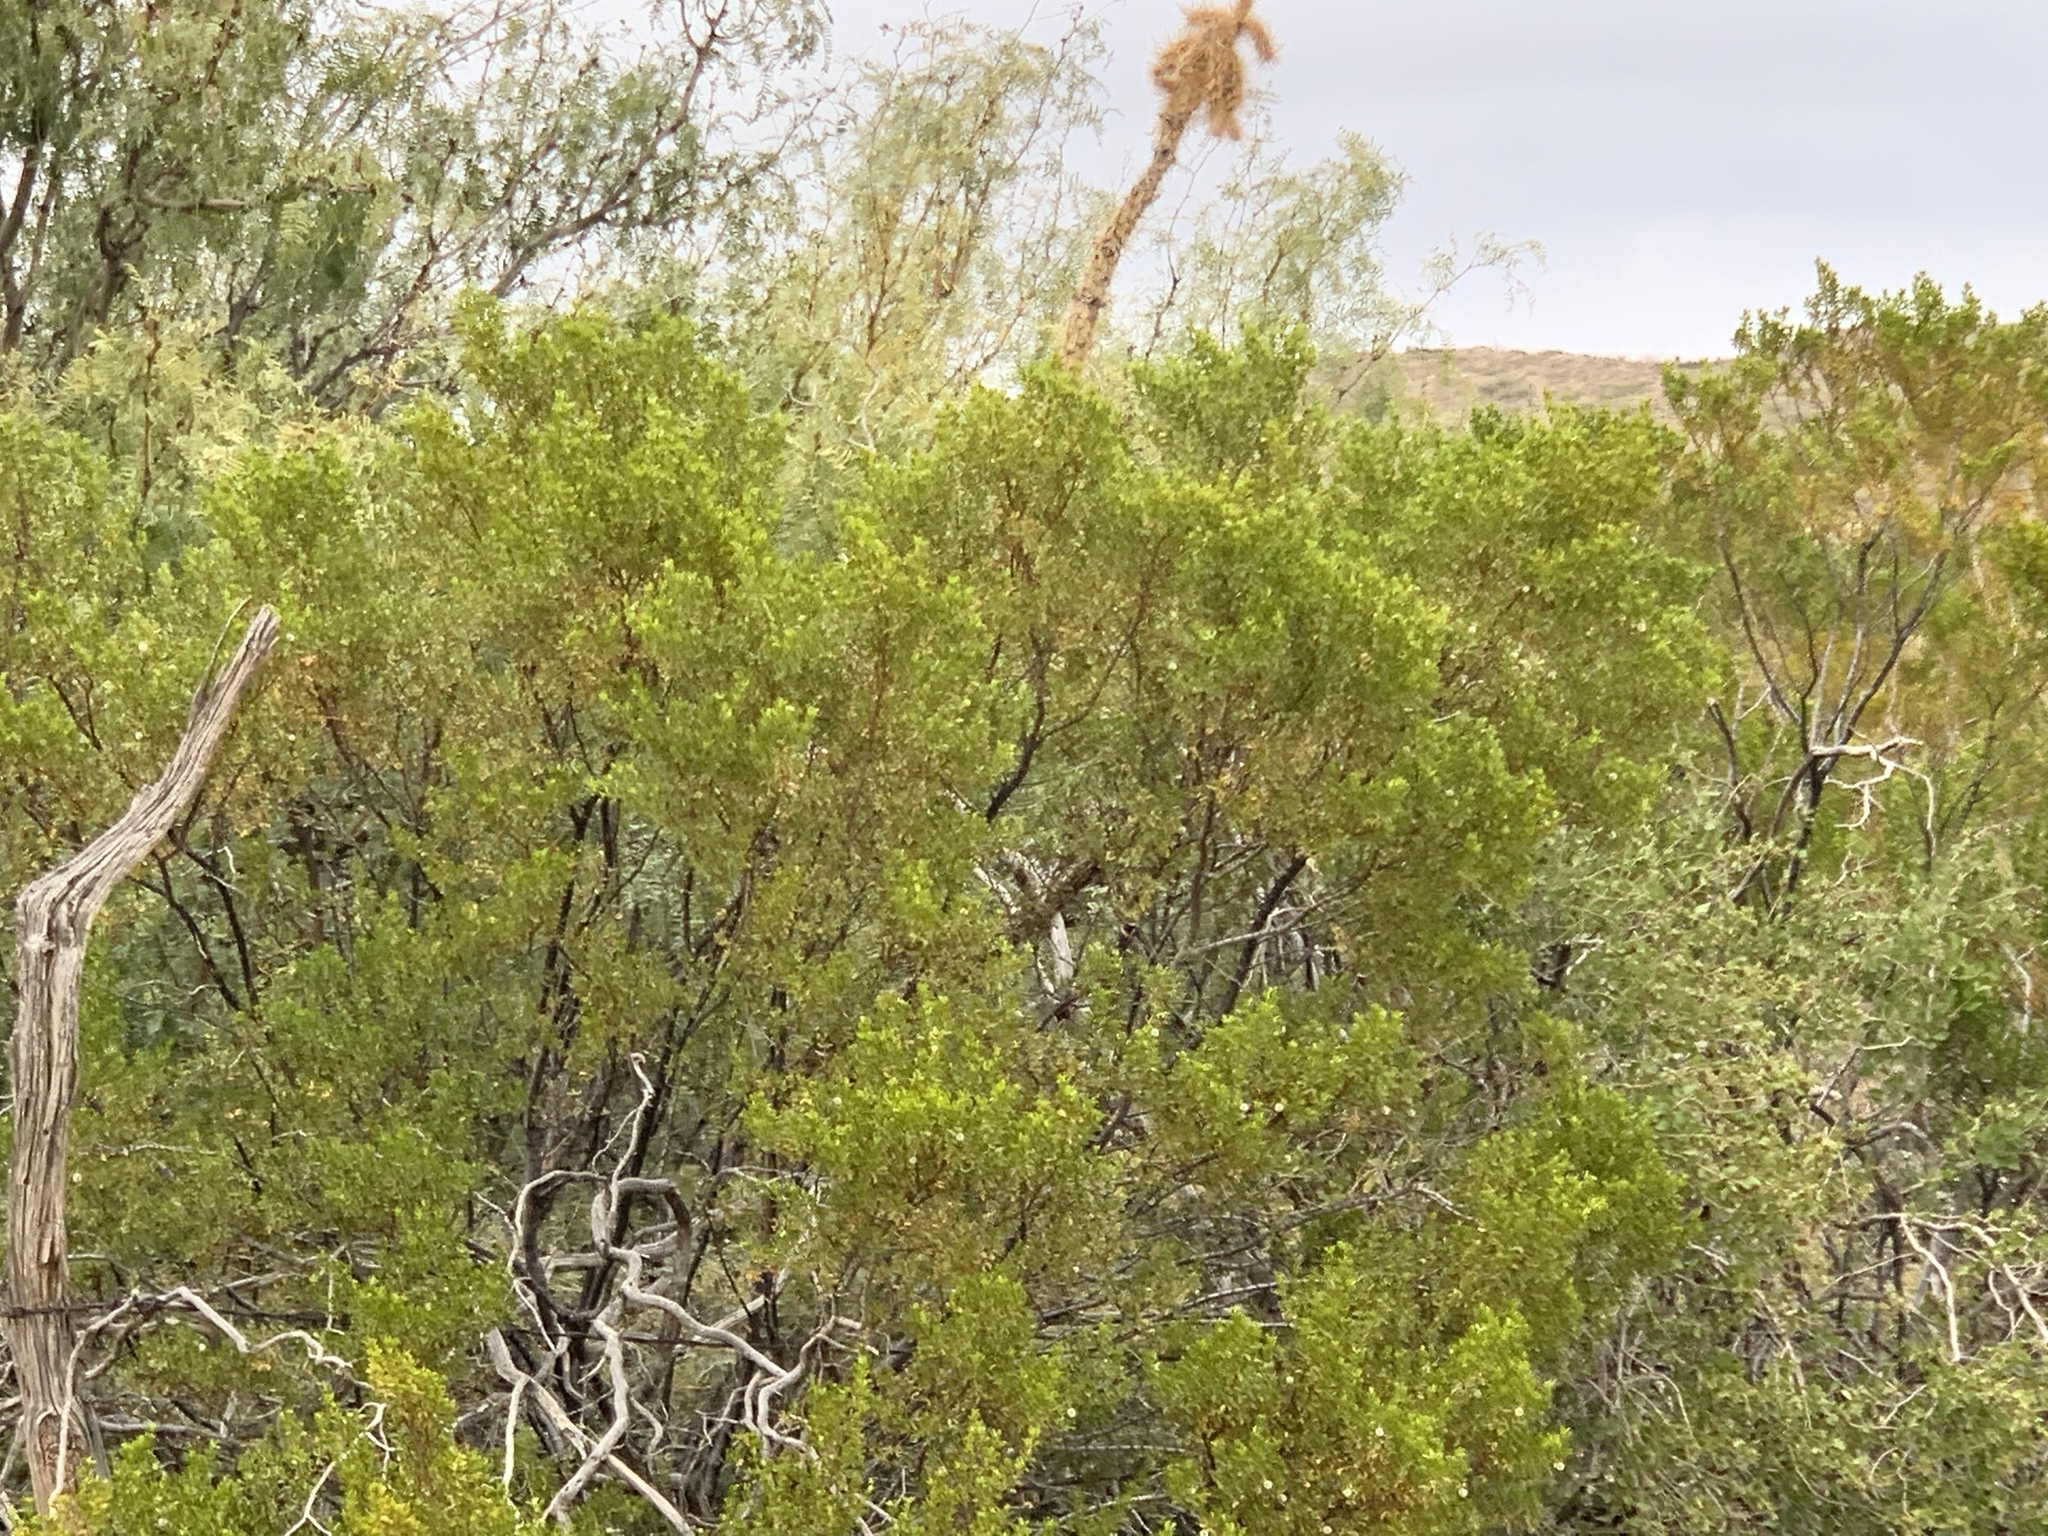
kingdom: Plantae
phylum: Tracheophyta
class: Magnoliopsida
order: Zygophyllales
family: Zygophyllaceae
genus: Larrea
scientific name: Larrea tridentata
